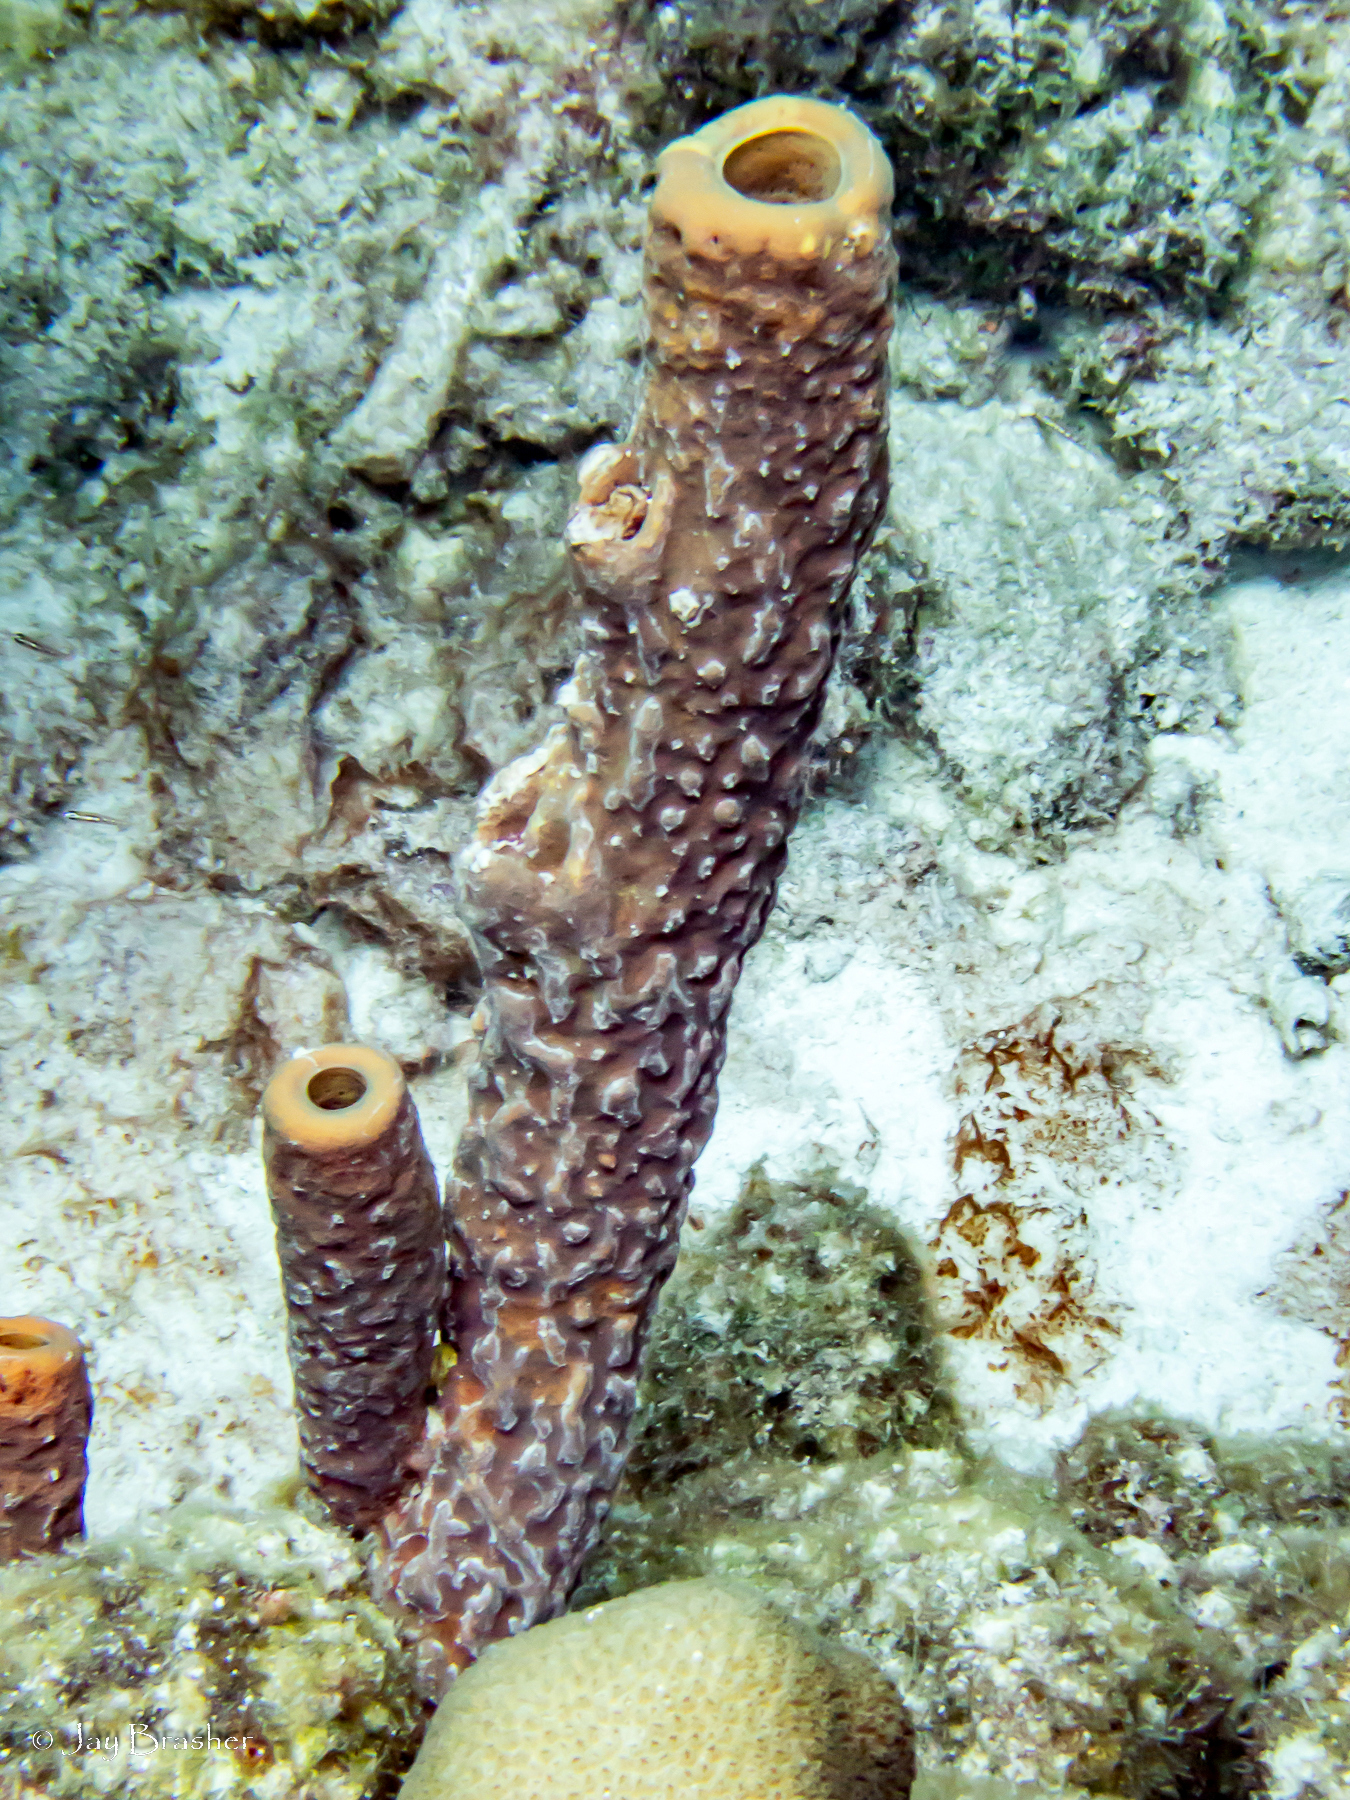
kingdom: Animalia
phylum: Porifera
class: Demospongiae
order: Verongiida
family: Aplysinidae
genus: Aplysina
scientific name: Aplysina archeri
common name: Stove-pipe sponge
